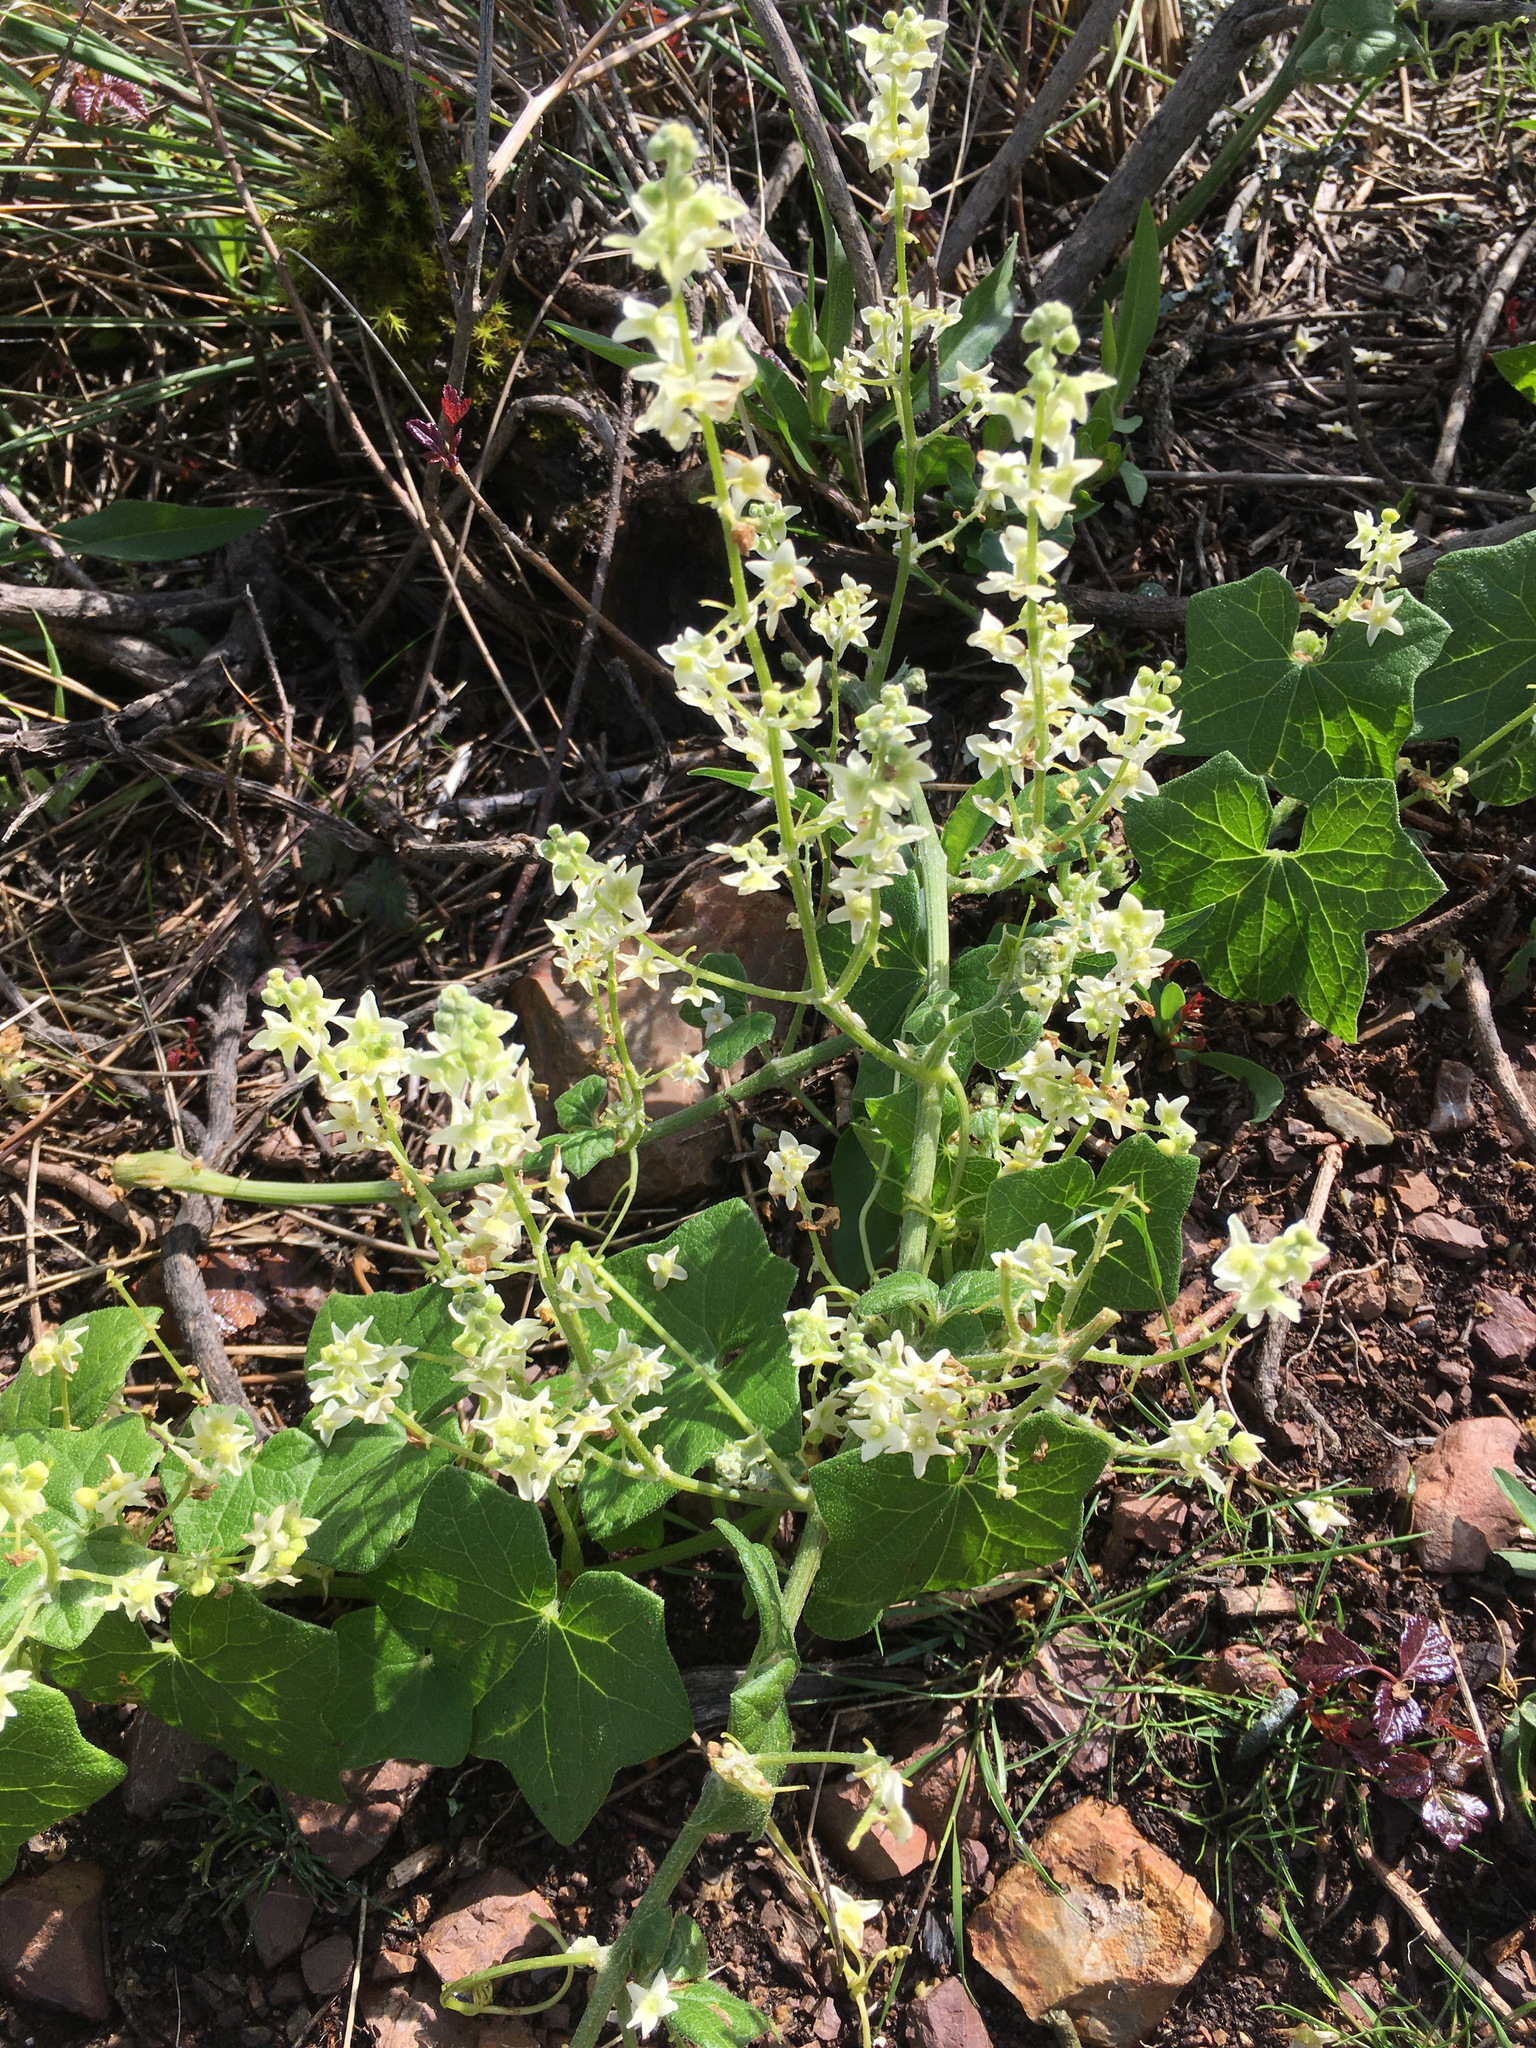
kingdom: Plantae
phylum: Tracheophyta
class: Magnoliopsida
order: Cucurbitales
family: Cucurbitaceae
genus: Marah
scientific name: Marah fabacea
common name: California manroot
